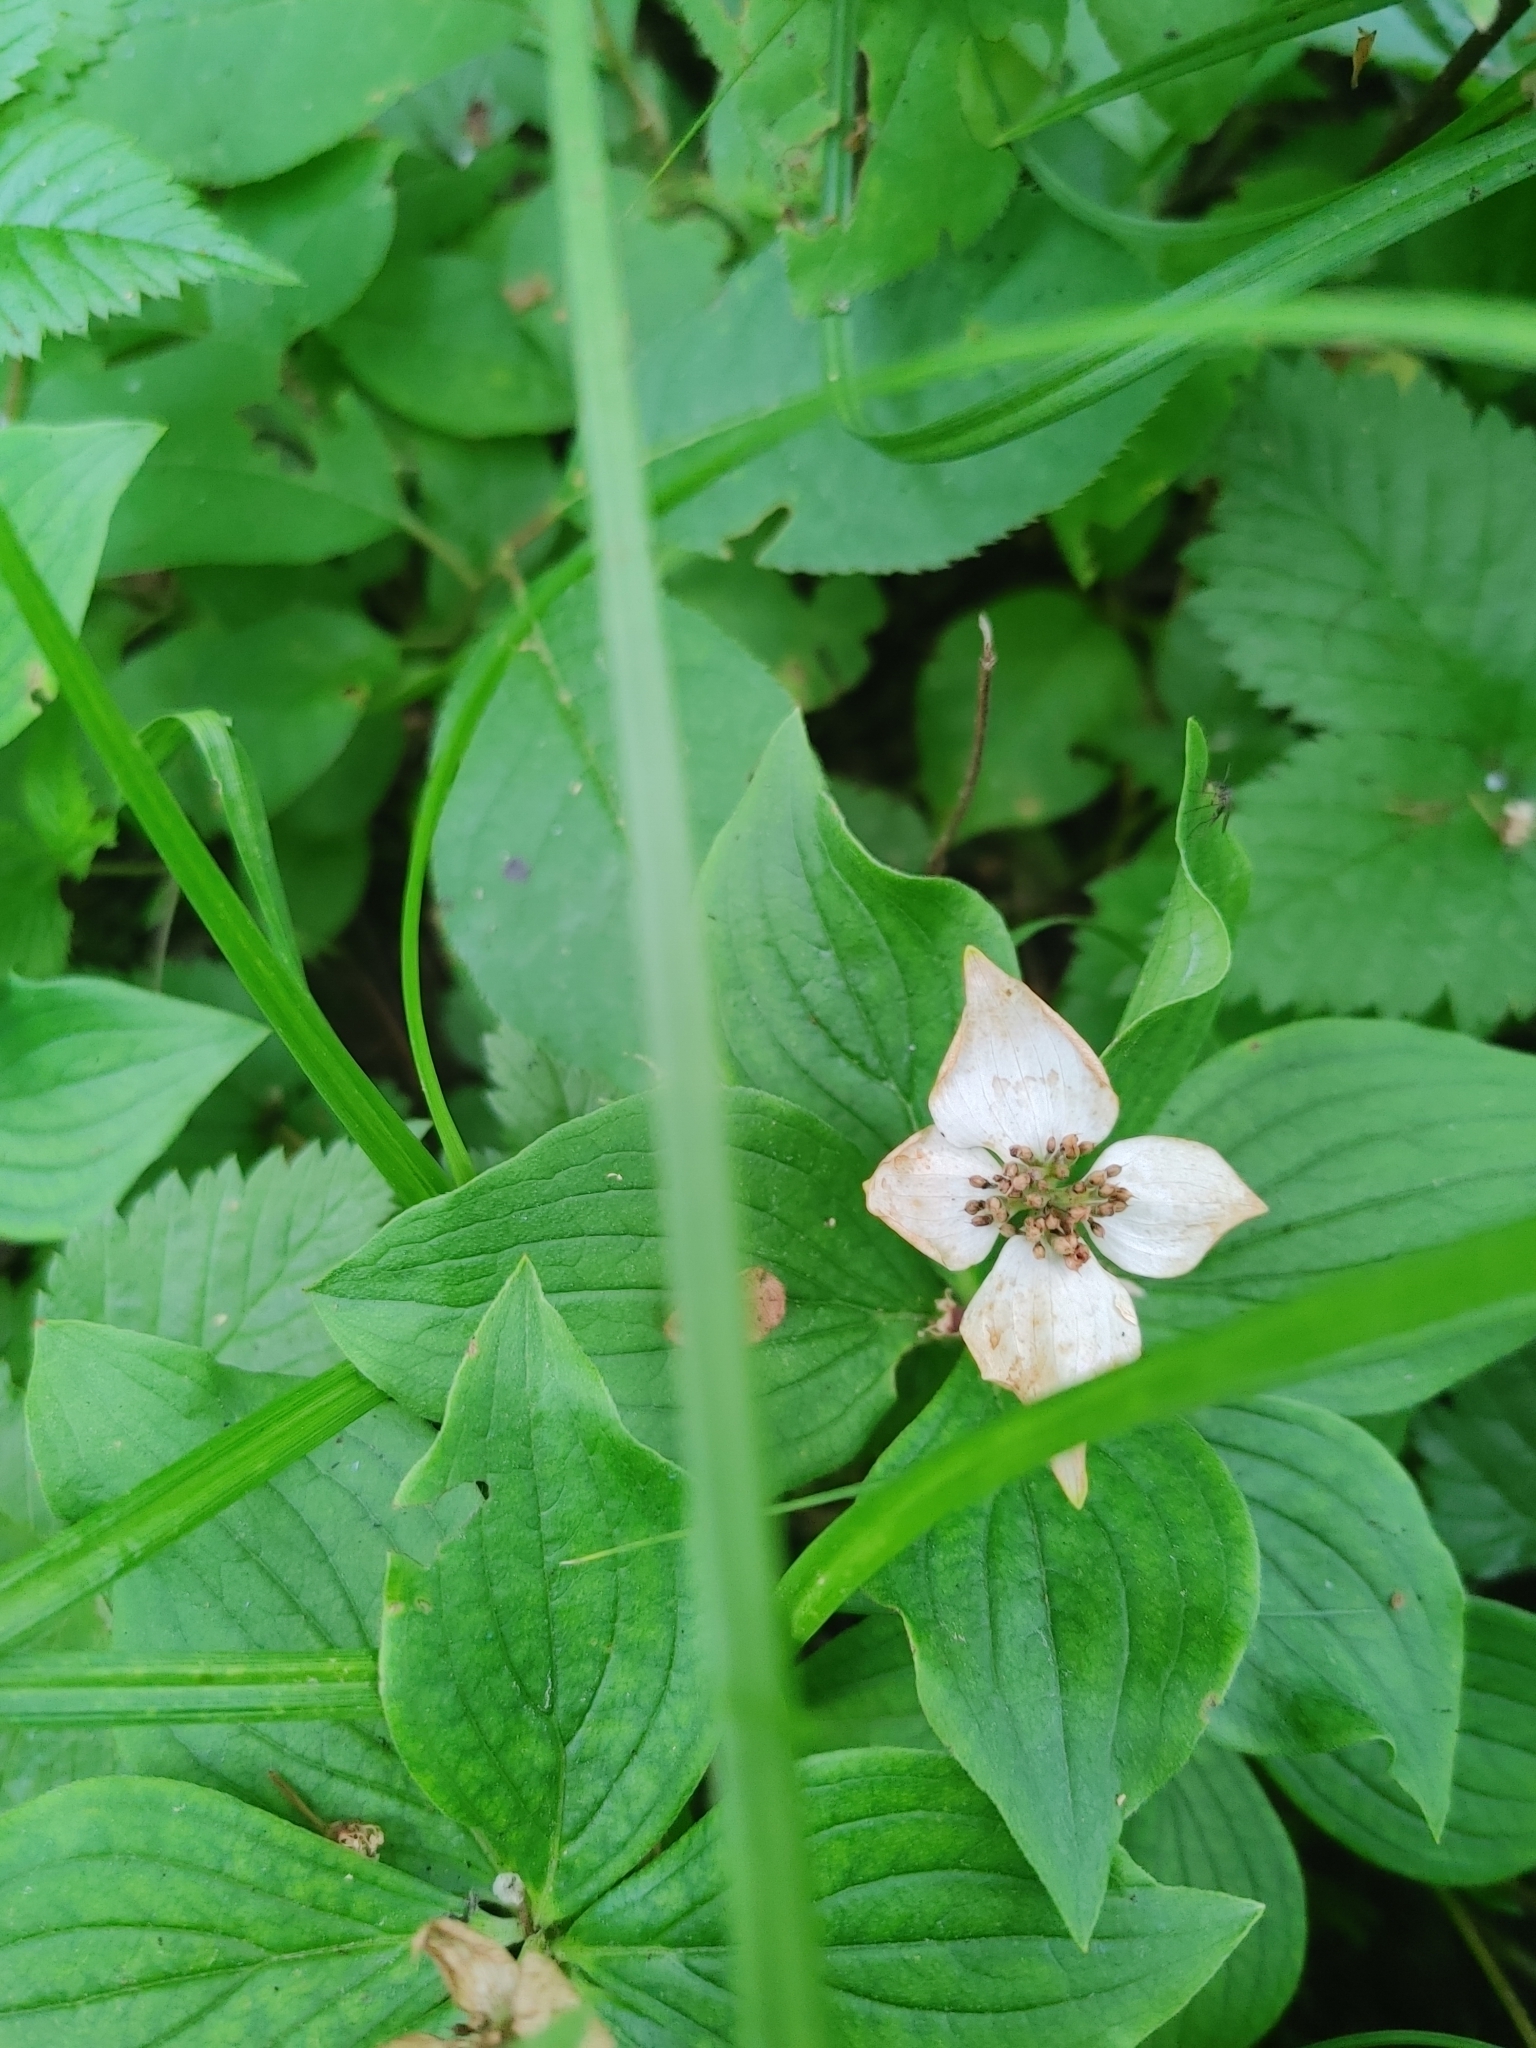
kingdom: Plantae
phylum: Tracheophyta
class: Magnoliopsida
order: Cornales
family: Cornaceae
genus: Cornus
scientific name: Cornus canadensis
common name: Creeping dogwood
